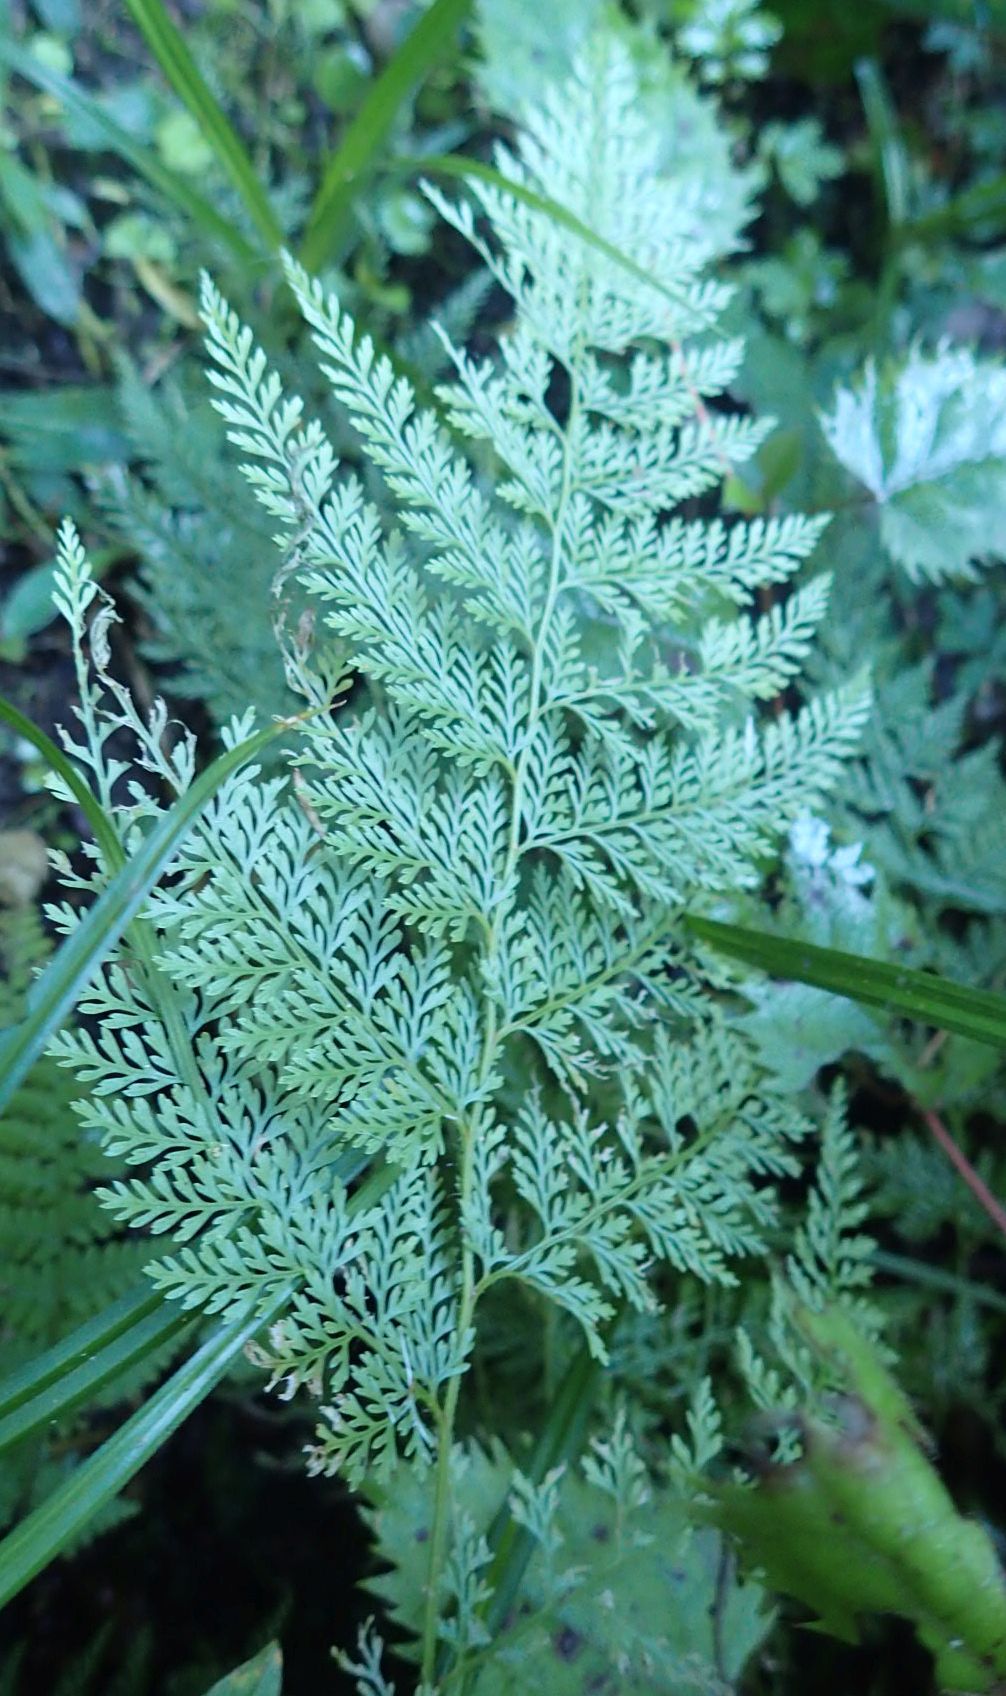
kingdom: Plantae
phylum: Tracheophyta
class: Polypodiopsida
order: Polypodiales
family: Dennstaedtiaceae
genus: Paesia
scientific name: Paesia scaberula
